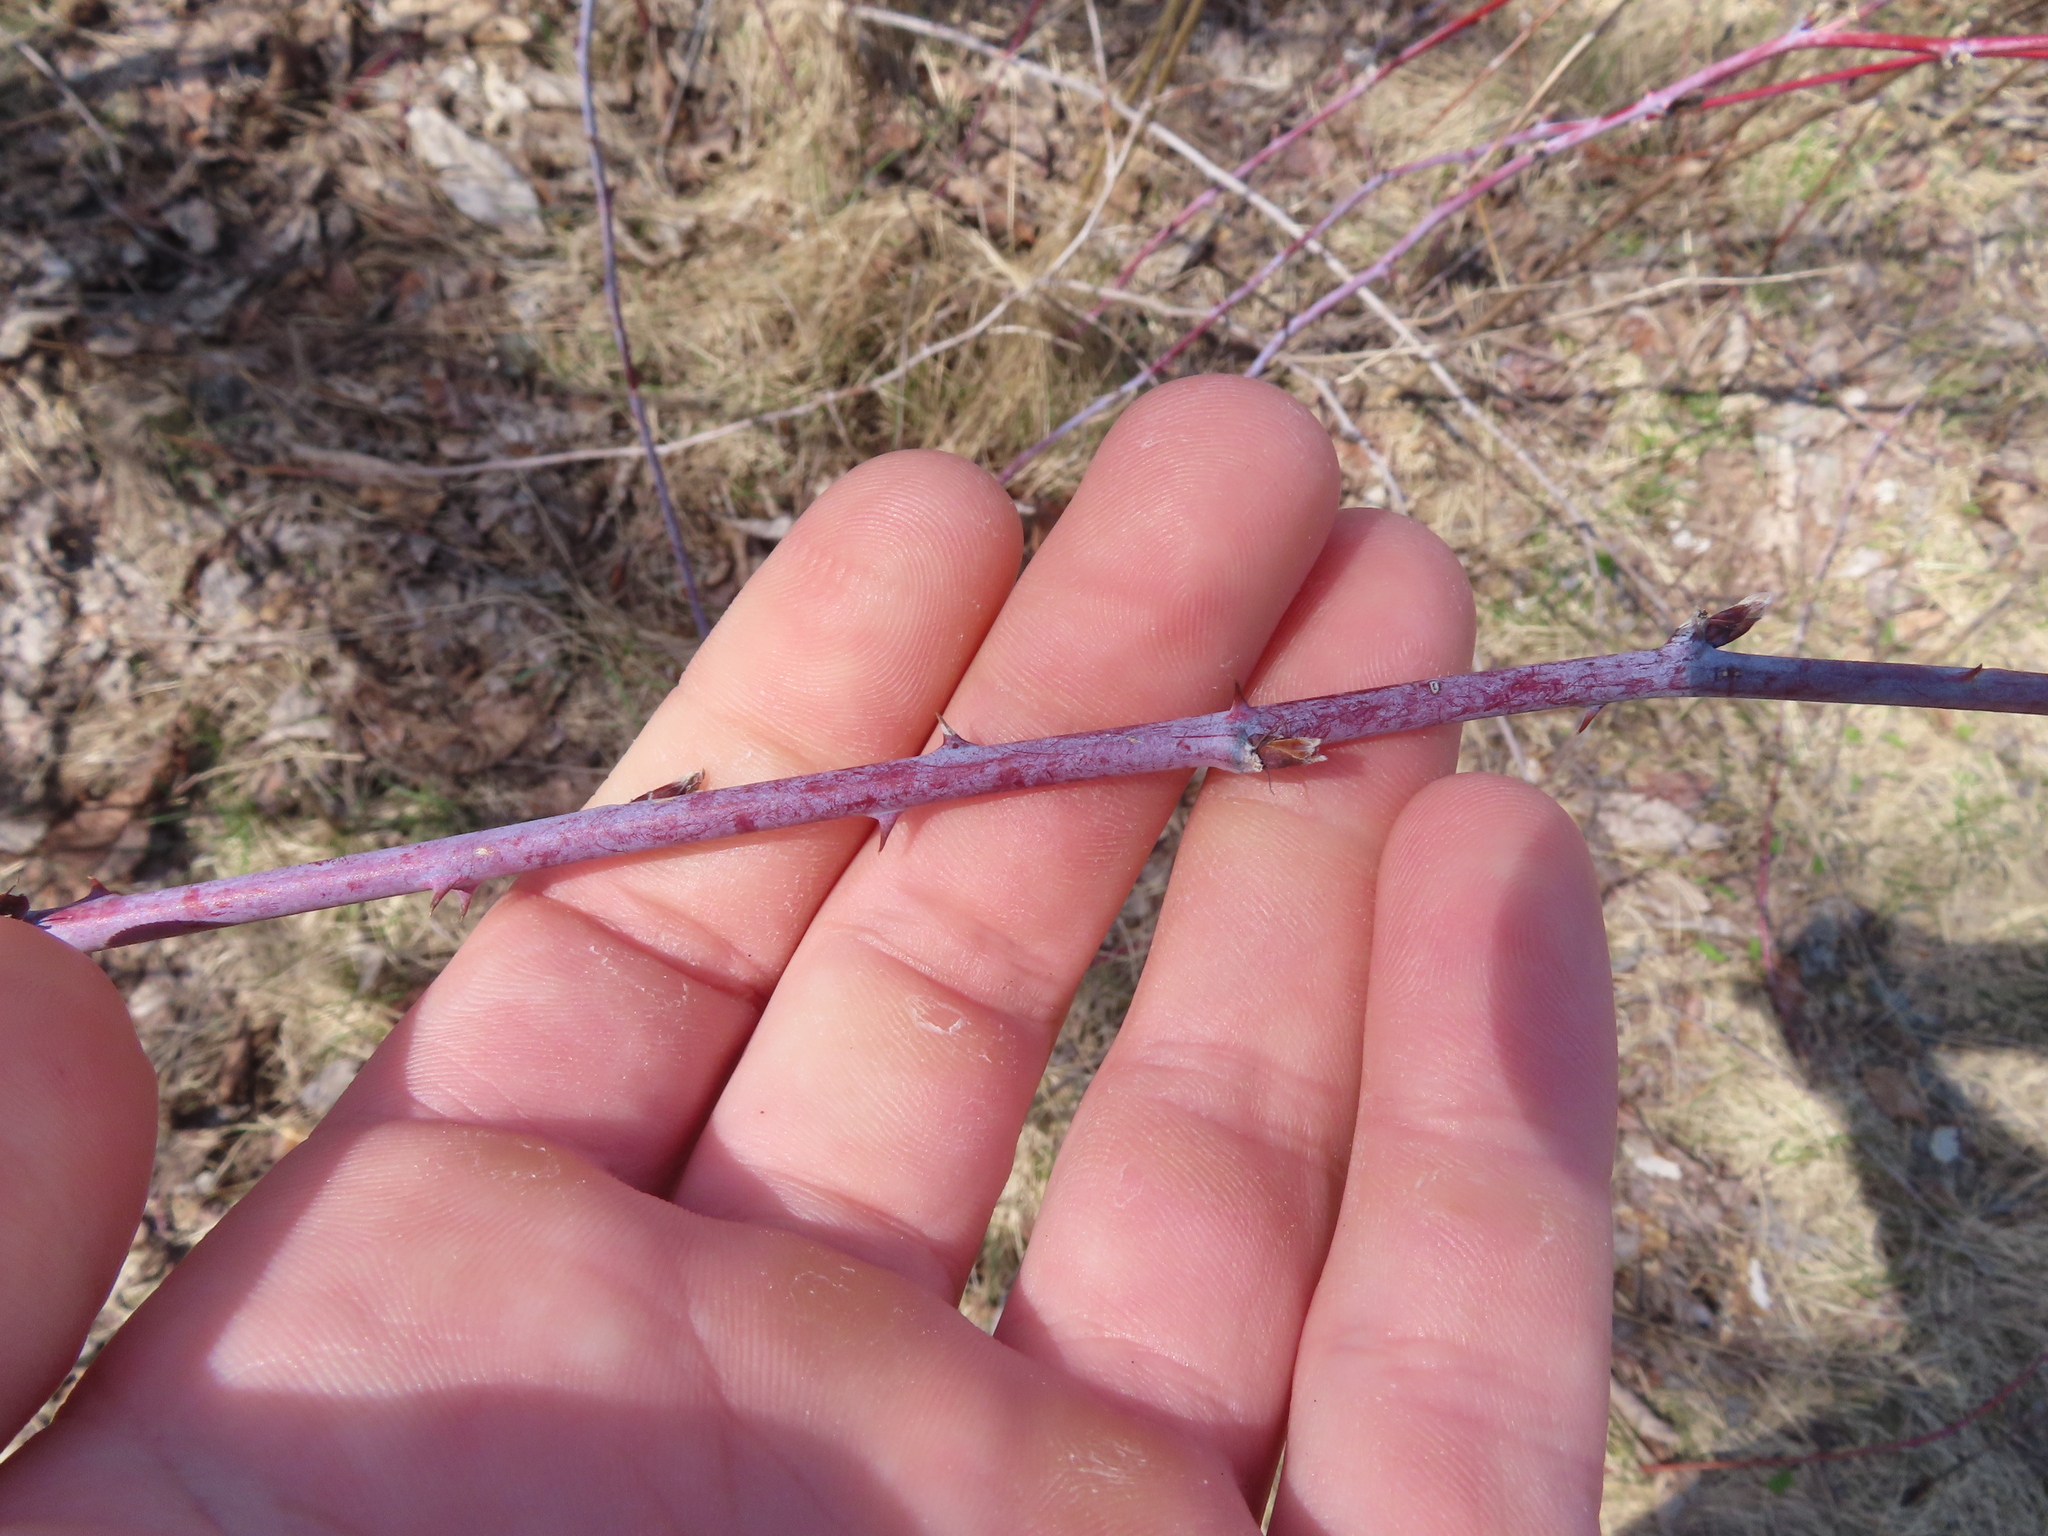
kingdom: Plantae
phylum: Tracheophyta
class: Magnoliopsida
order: Rosales
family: Rosaceae
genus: Rubus
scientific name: Rubus occidentalis
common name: Black raspberry
